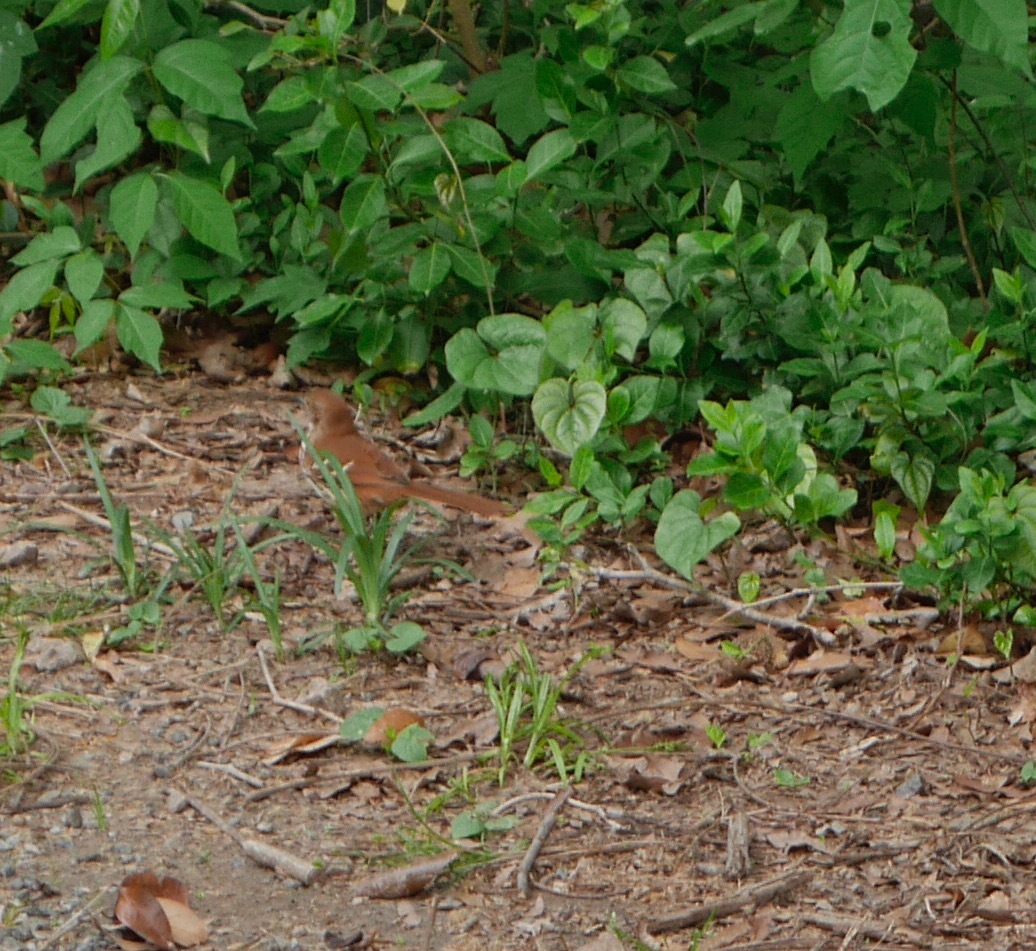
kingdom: Animalia
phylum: Chordata
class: Aves
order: Passeriformes
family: Mimidae
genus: Toxostoma
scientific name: Toxostoma rufum
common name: Brown thrasher
